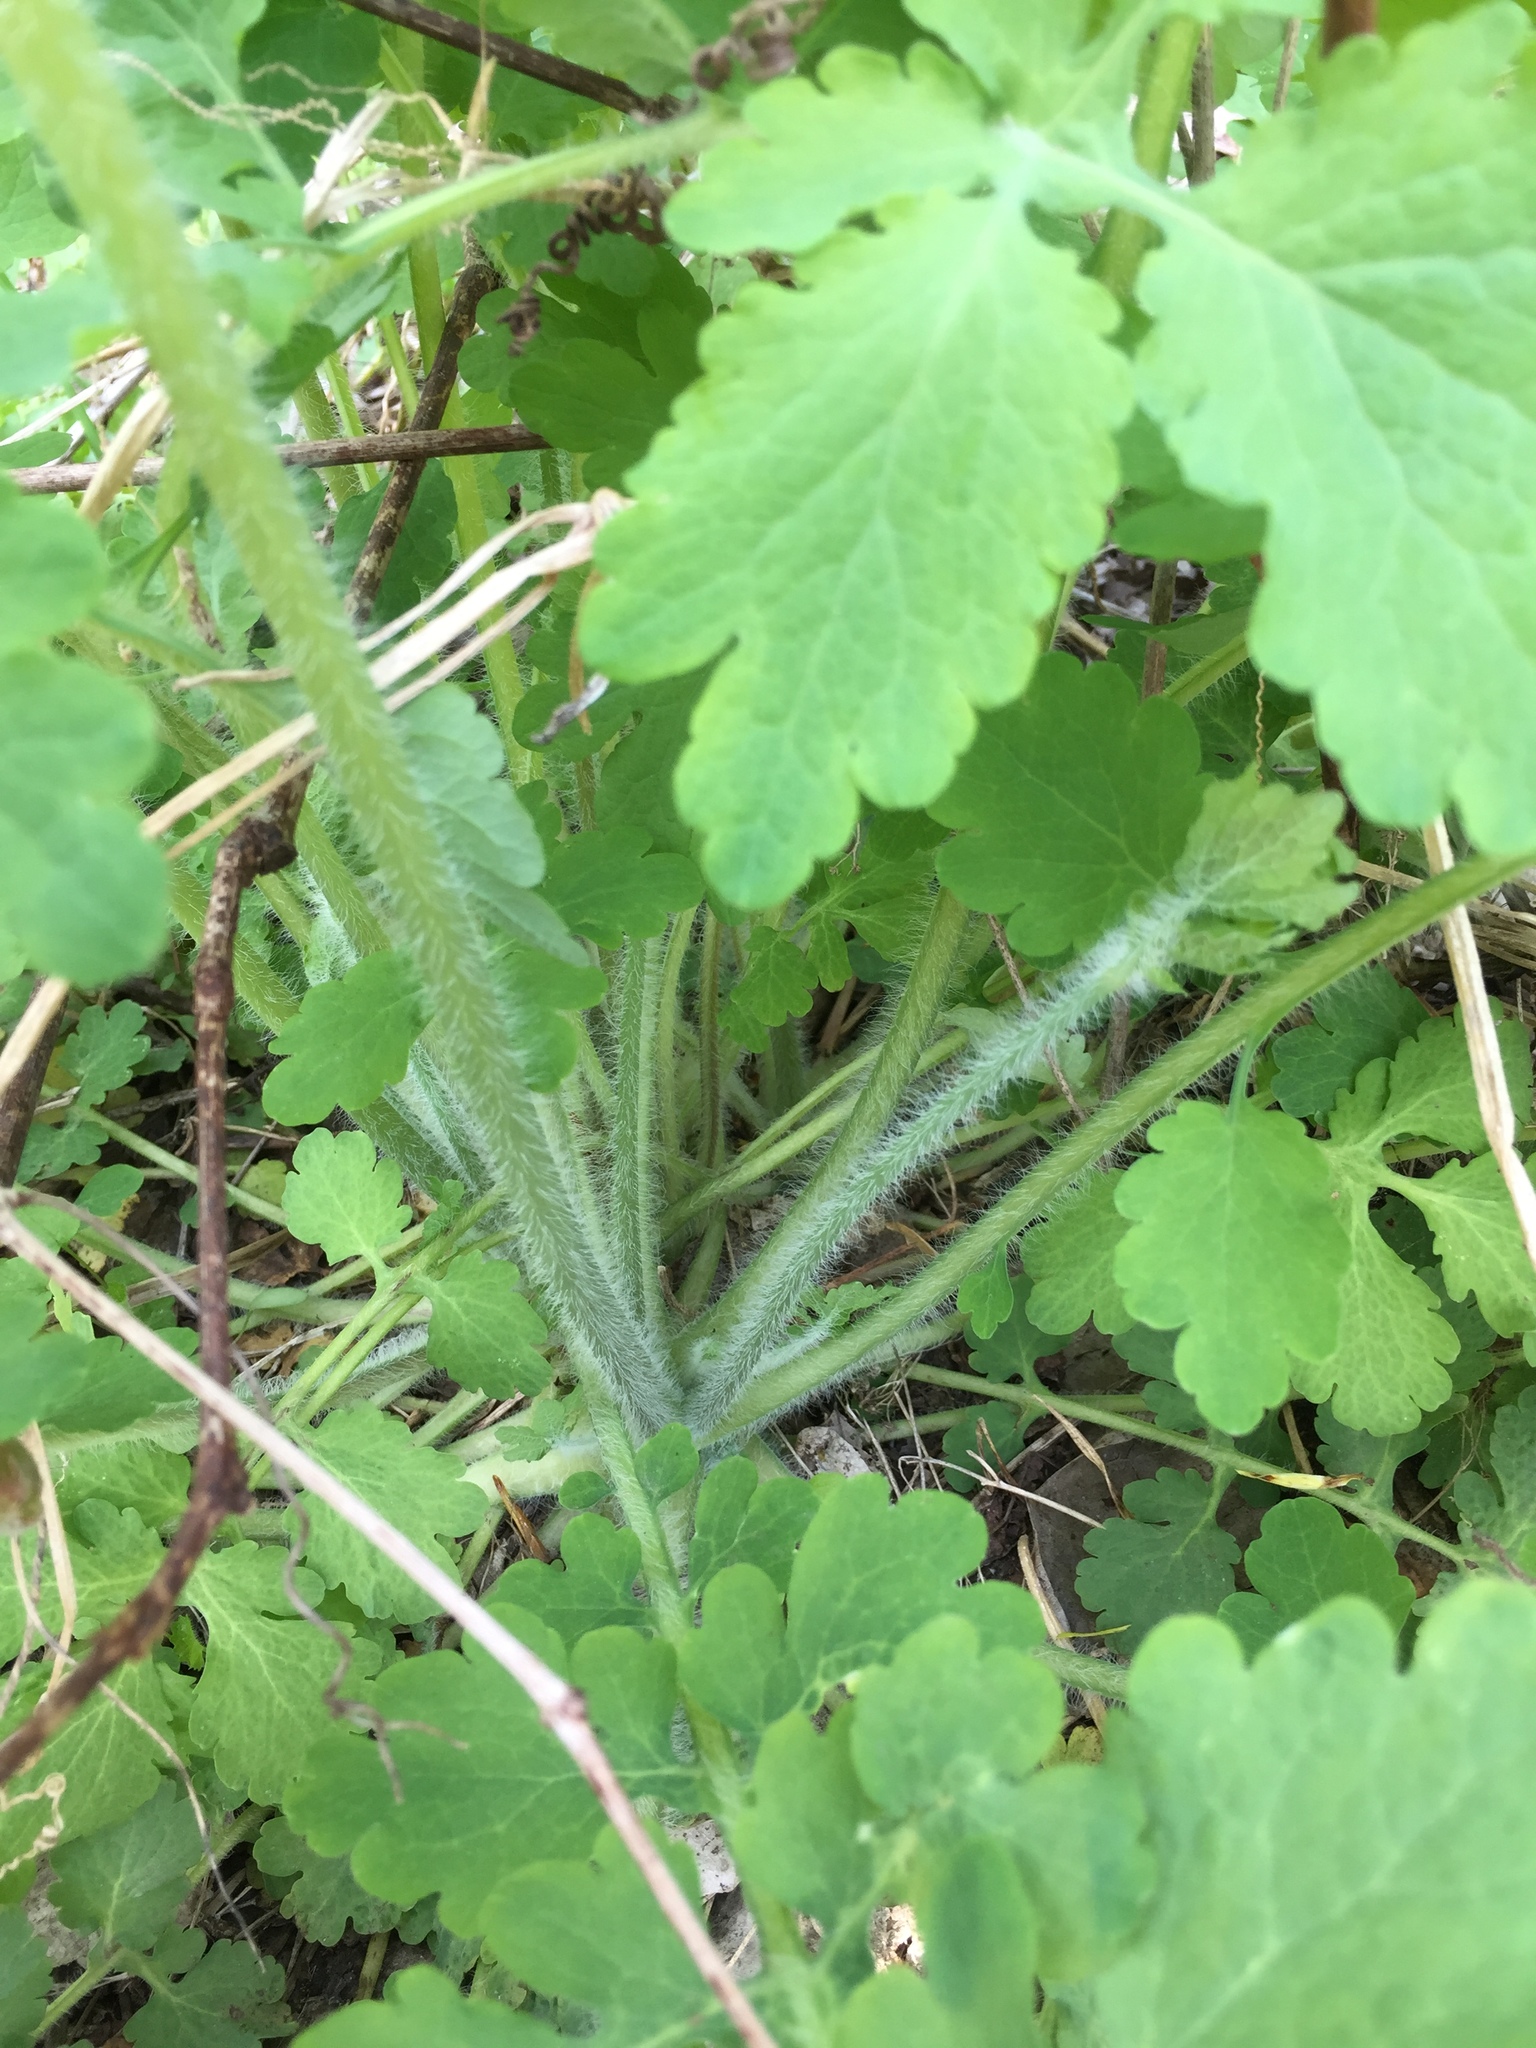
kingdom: Plantae
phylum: Tracheophyta
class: Magnoliopsida
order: Ranunculales
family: Papaveraceae
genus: Chelidonium
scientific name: Chelidonium majus
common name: Greater celandine
